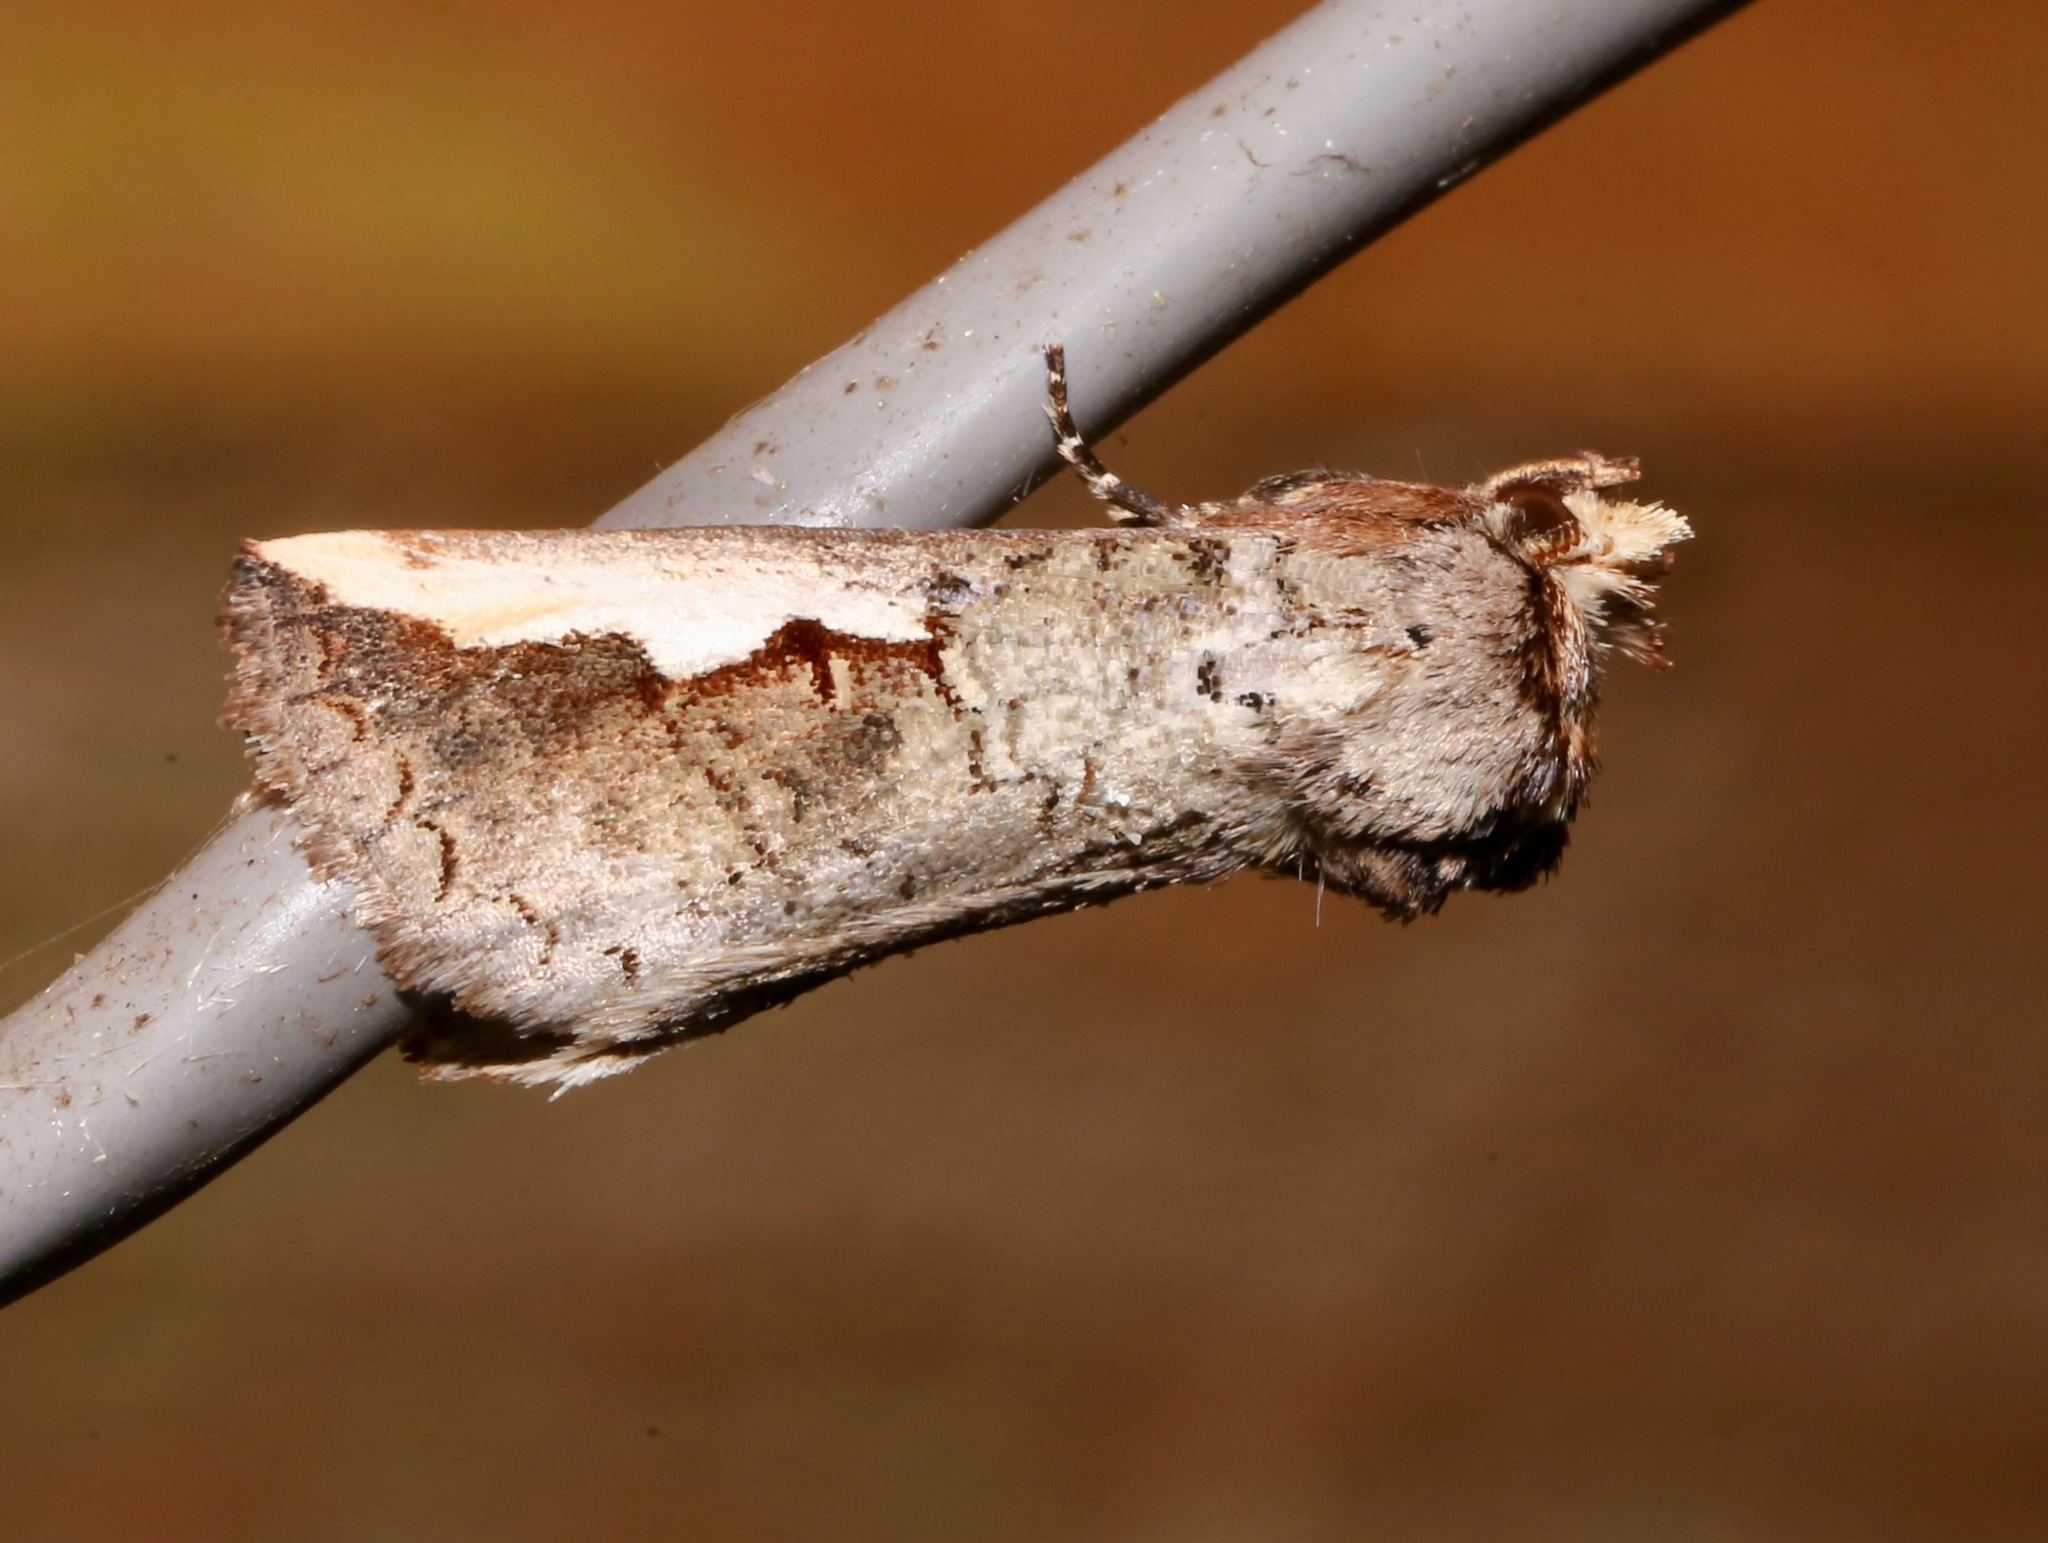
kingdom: Animalia
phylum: Arthropoda
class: Insecta
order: Lepidoptera
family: Notodontidae
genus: Symmerista
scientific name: Symmerista albifrons
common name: White-headed prominent
